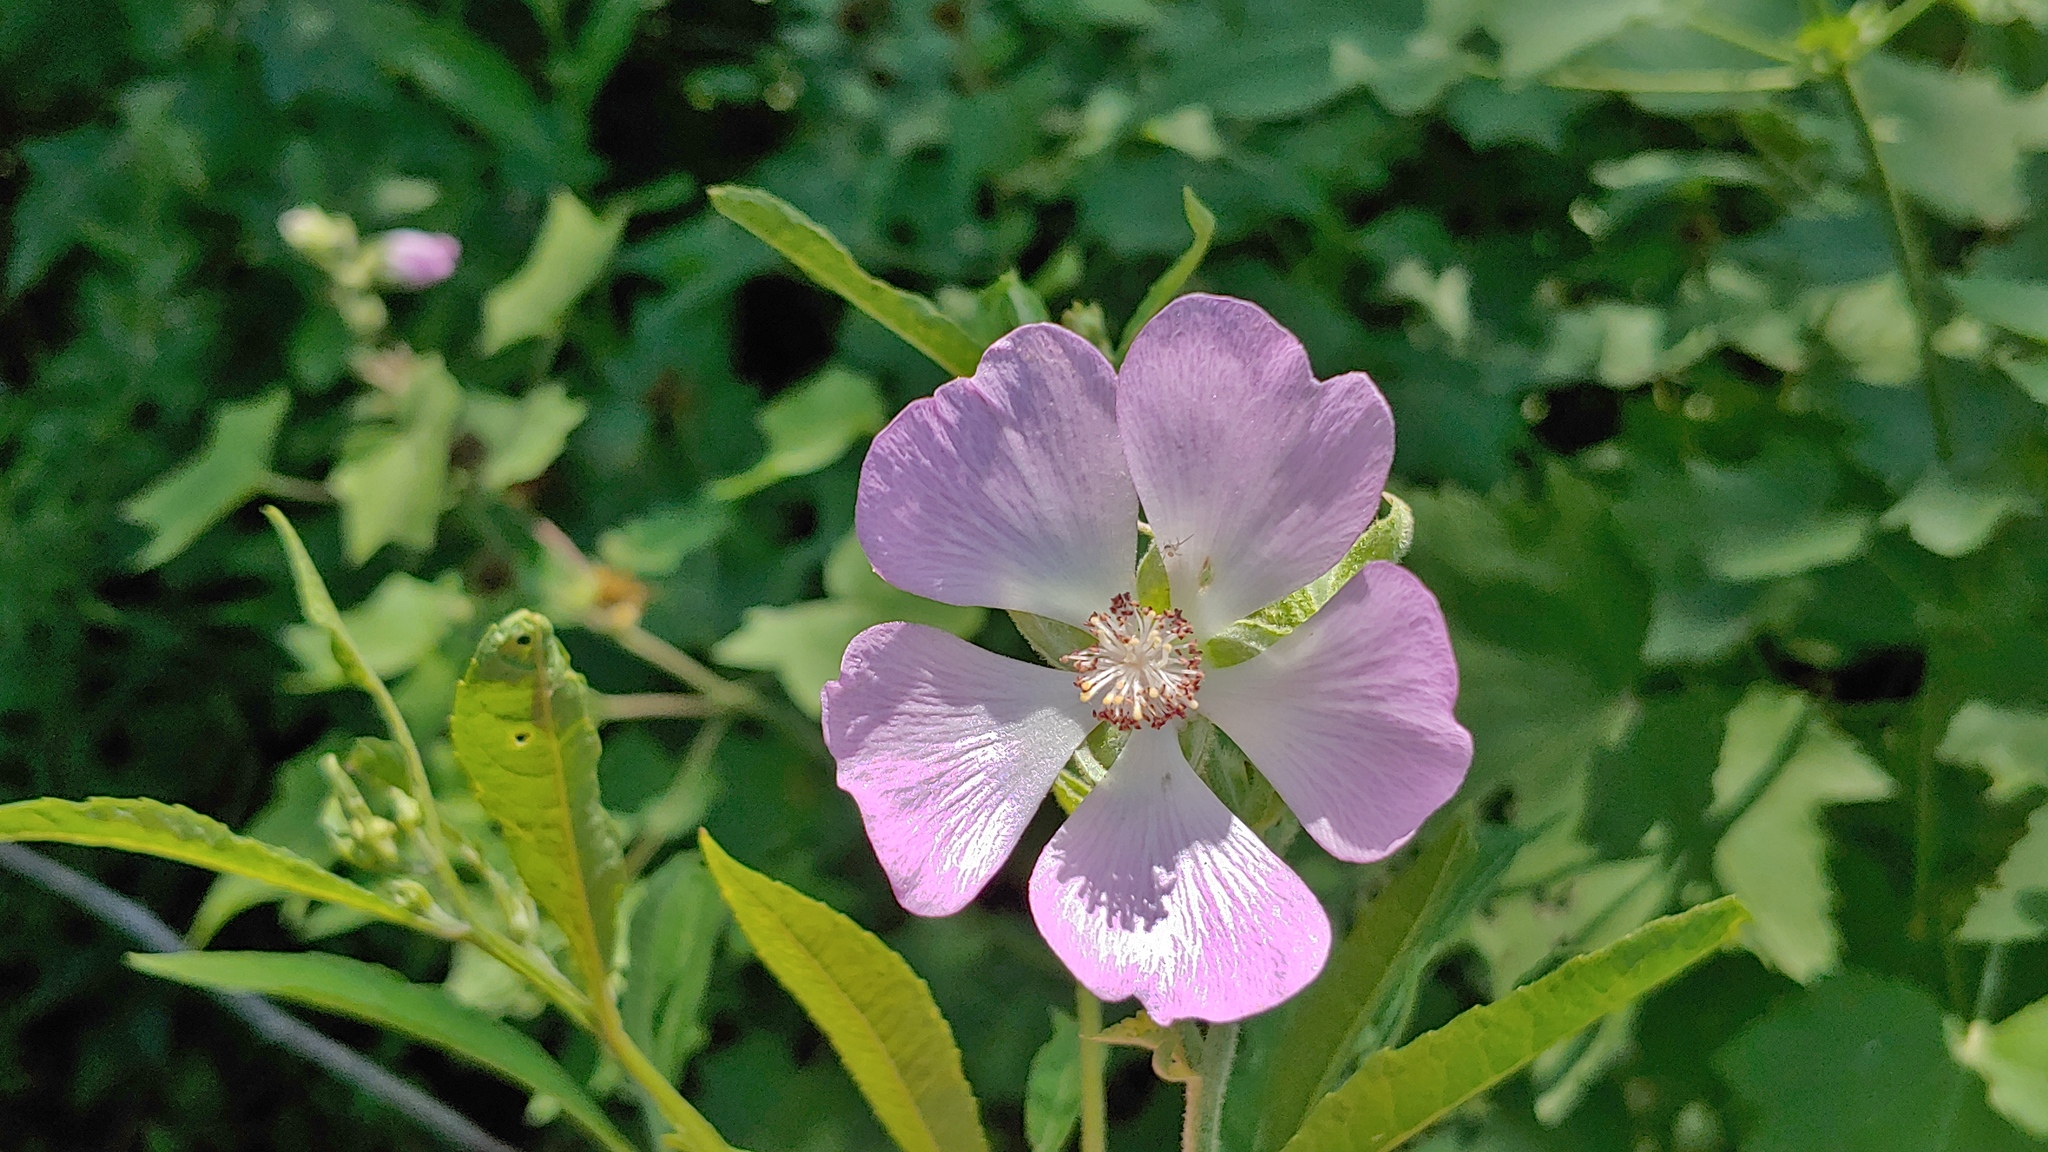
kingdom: Plantae
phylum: Tracheophyta
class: Magnoliopsida
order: Malvales
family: Malvaceae
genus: Iliamna
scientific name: Iliamna remota
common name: Kankakee globe-mallow
